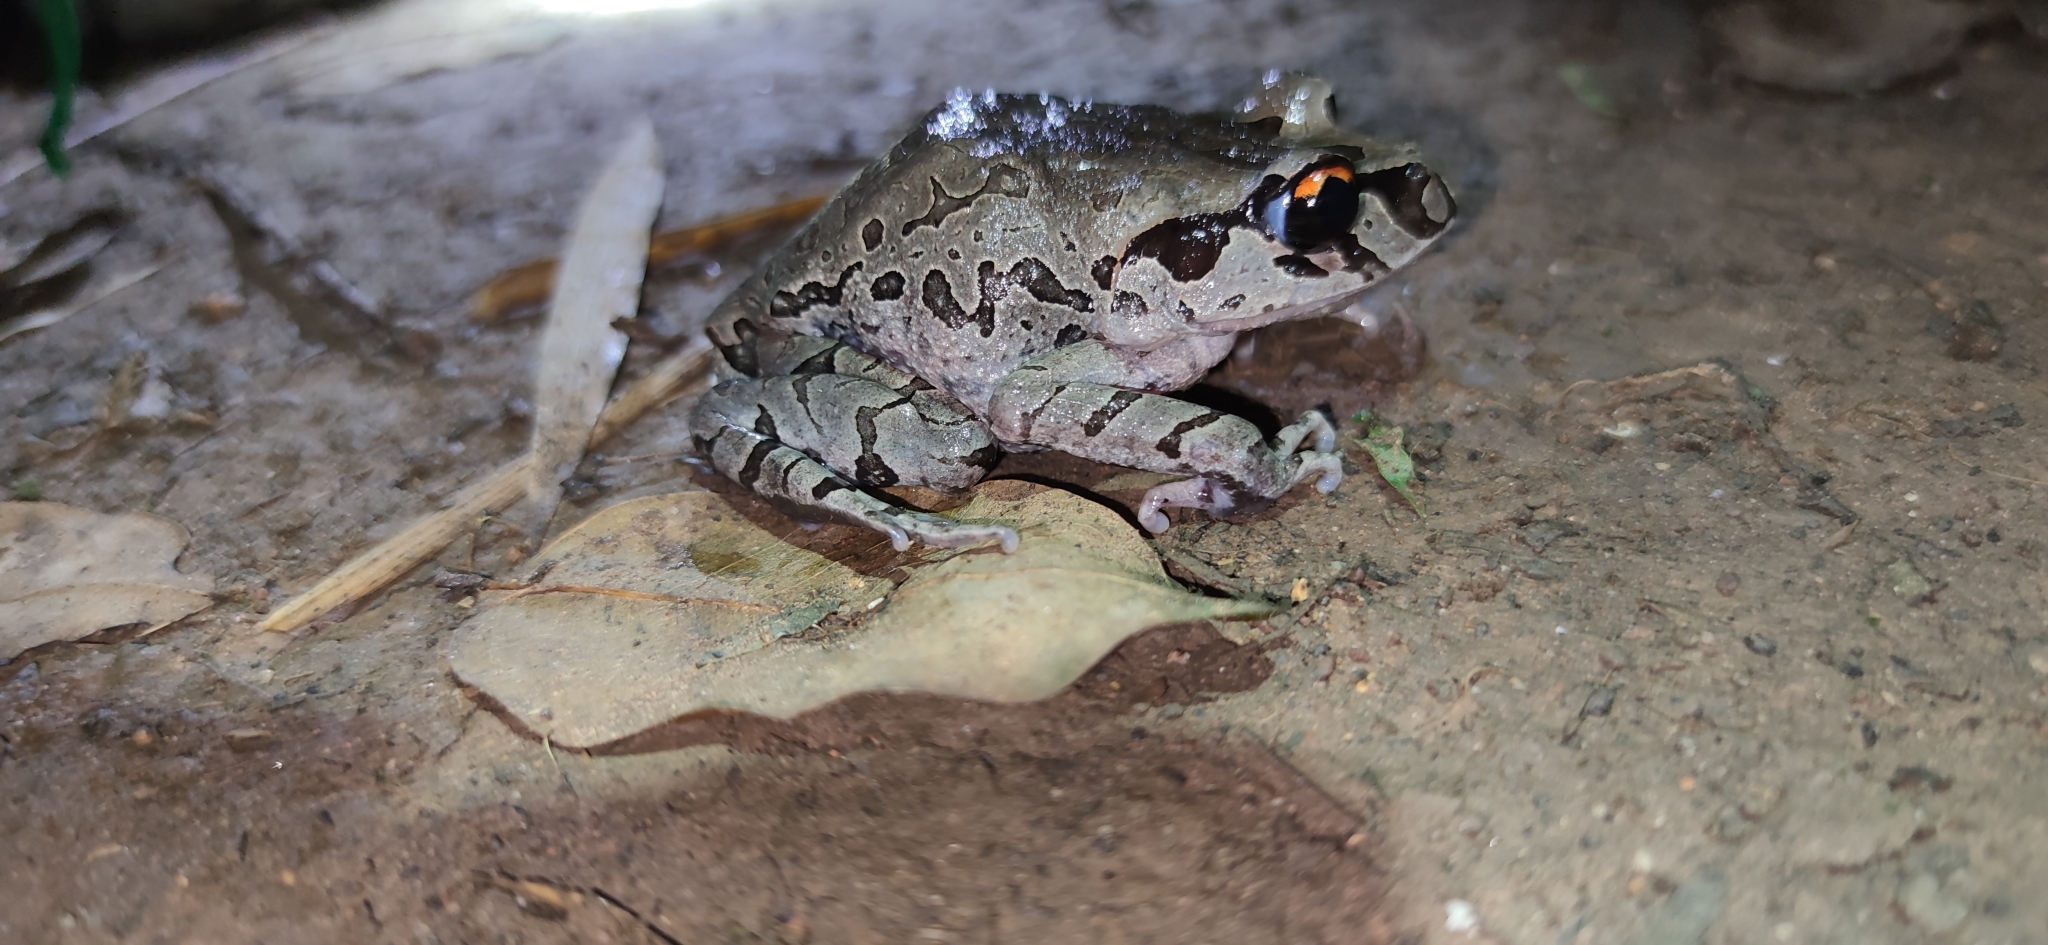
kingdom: Animalia
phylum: Chordata
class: Amphibia
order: Anura
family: Megophryidae
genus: Leptobrachium
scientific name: Leptobrachium smithi
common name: Smith's litter frog
